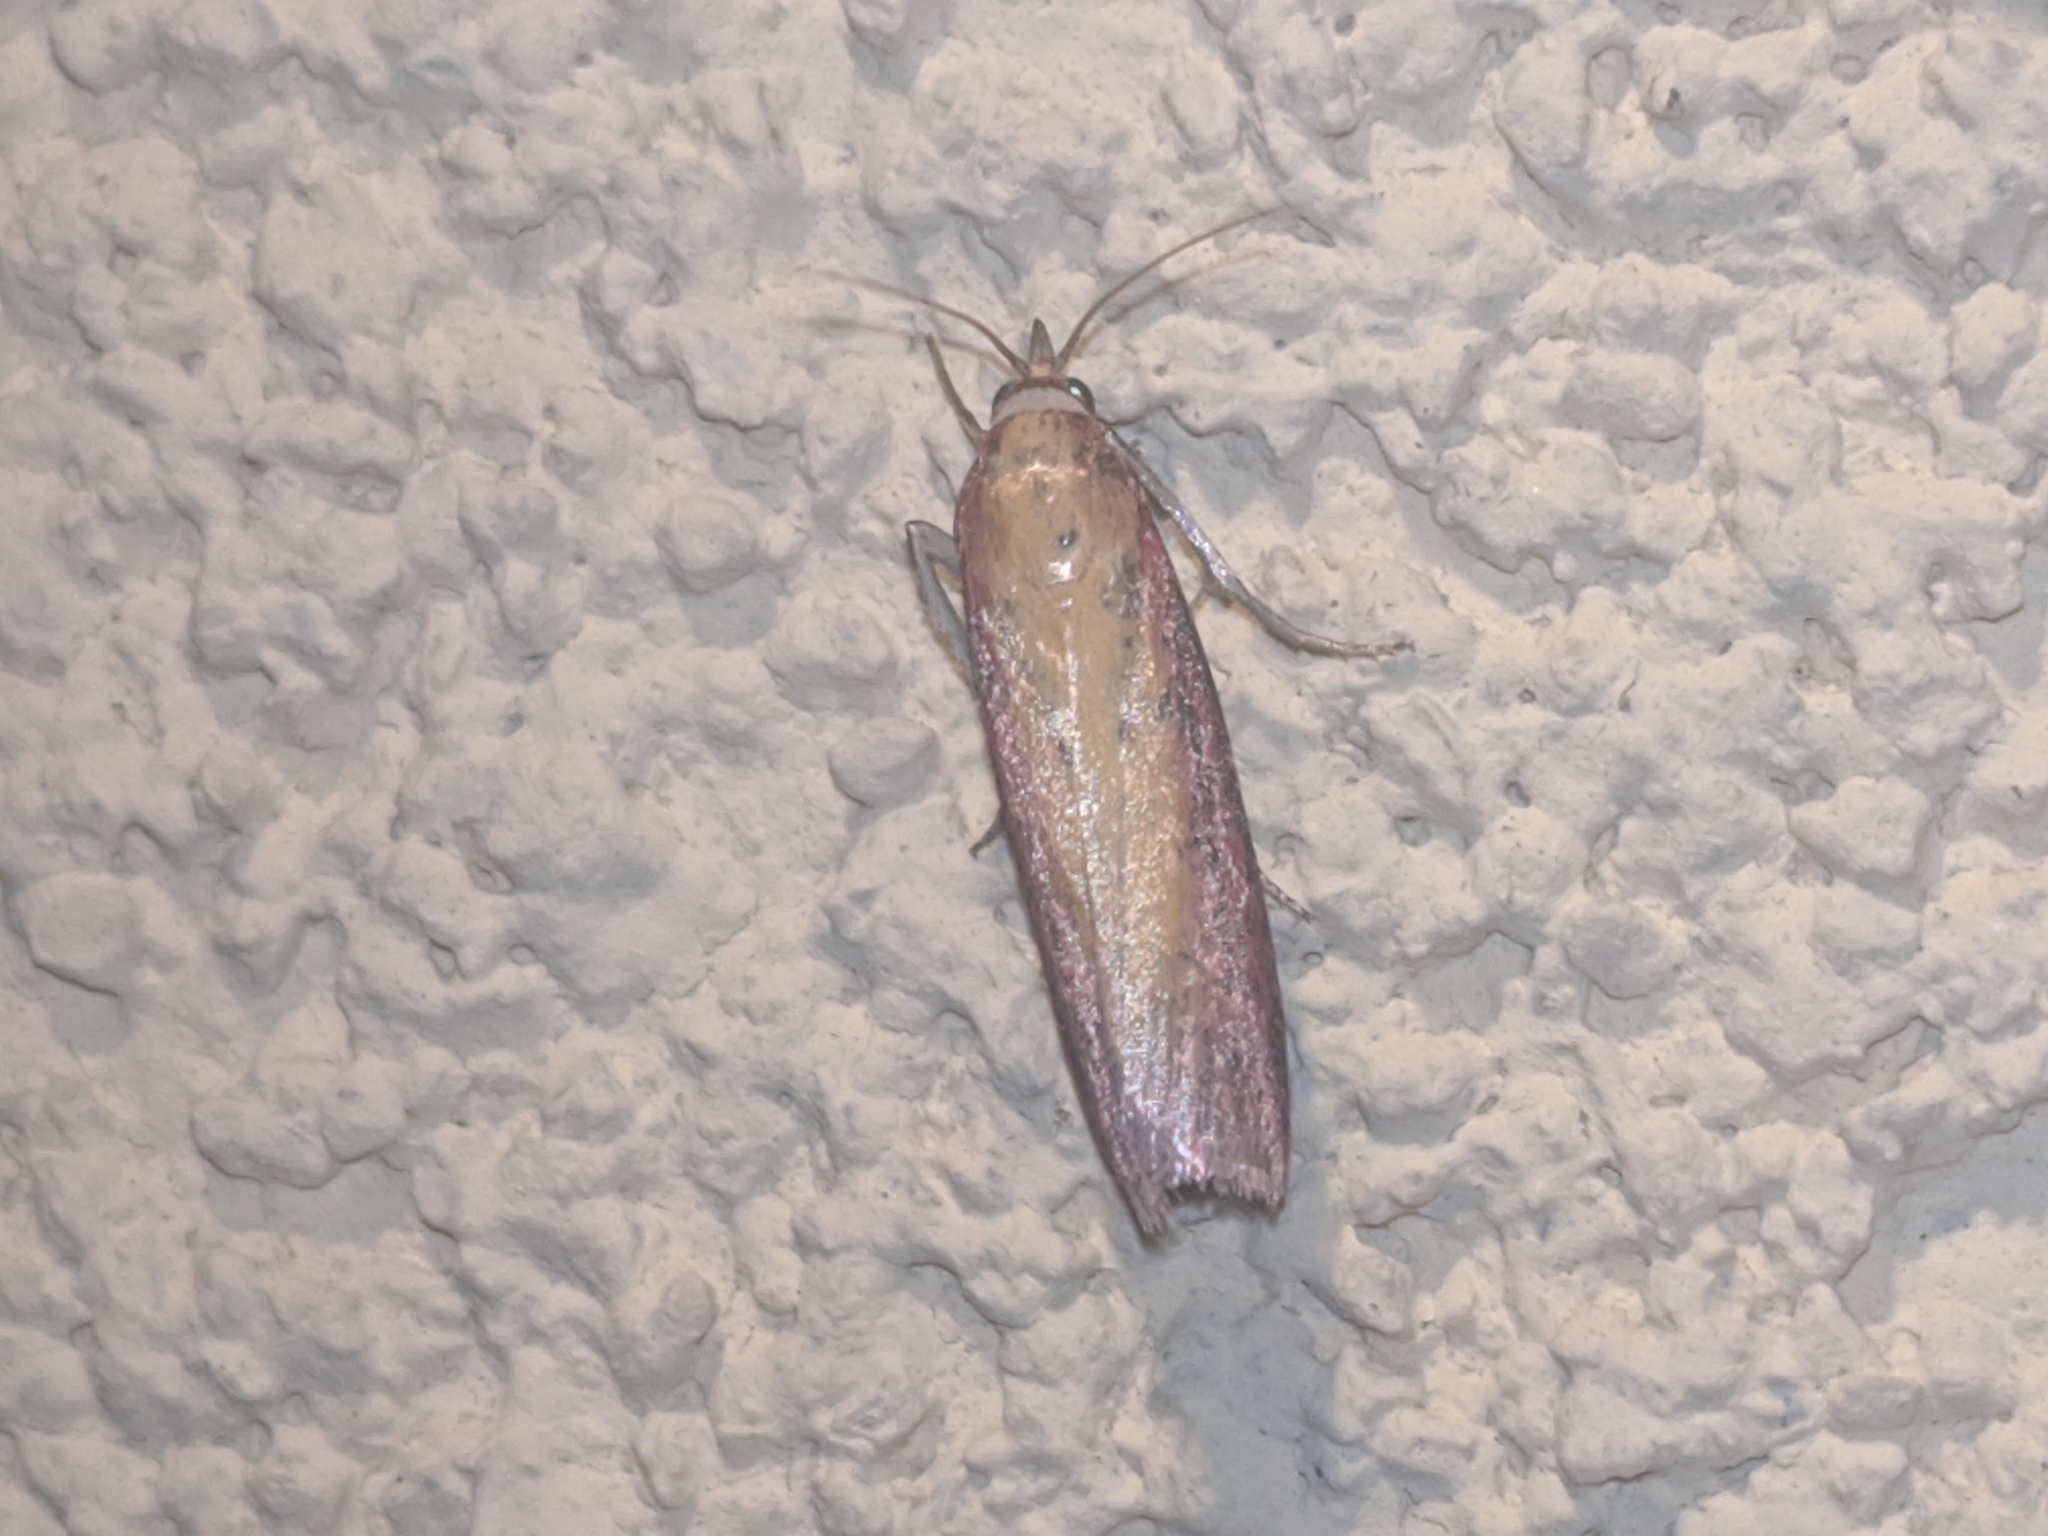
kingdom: Animalia
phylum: Arthropoda
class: Insecta
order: Lepidoptera
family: Pyralidae
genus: Oncocera
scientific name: Oncocera semirubella
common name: Rosy-striped knot-horn
